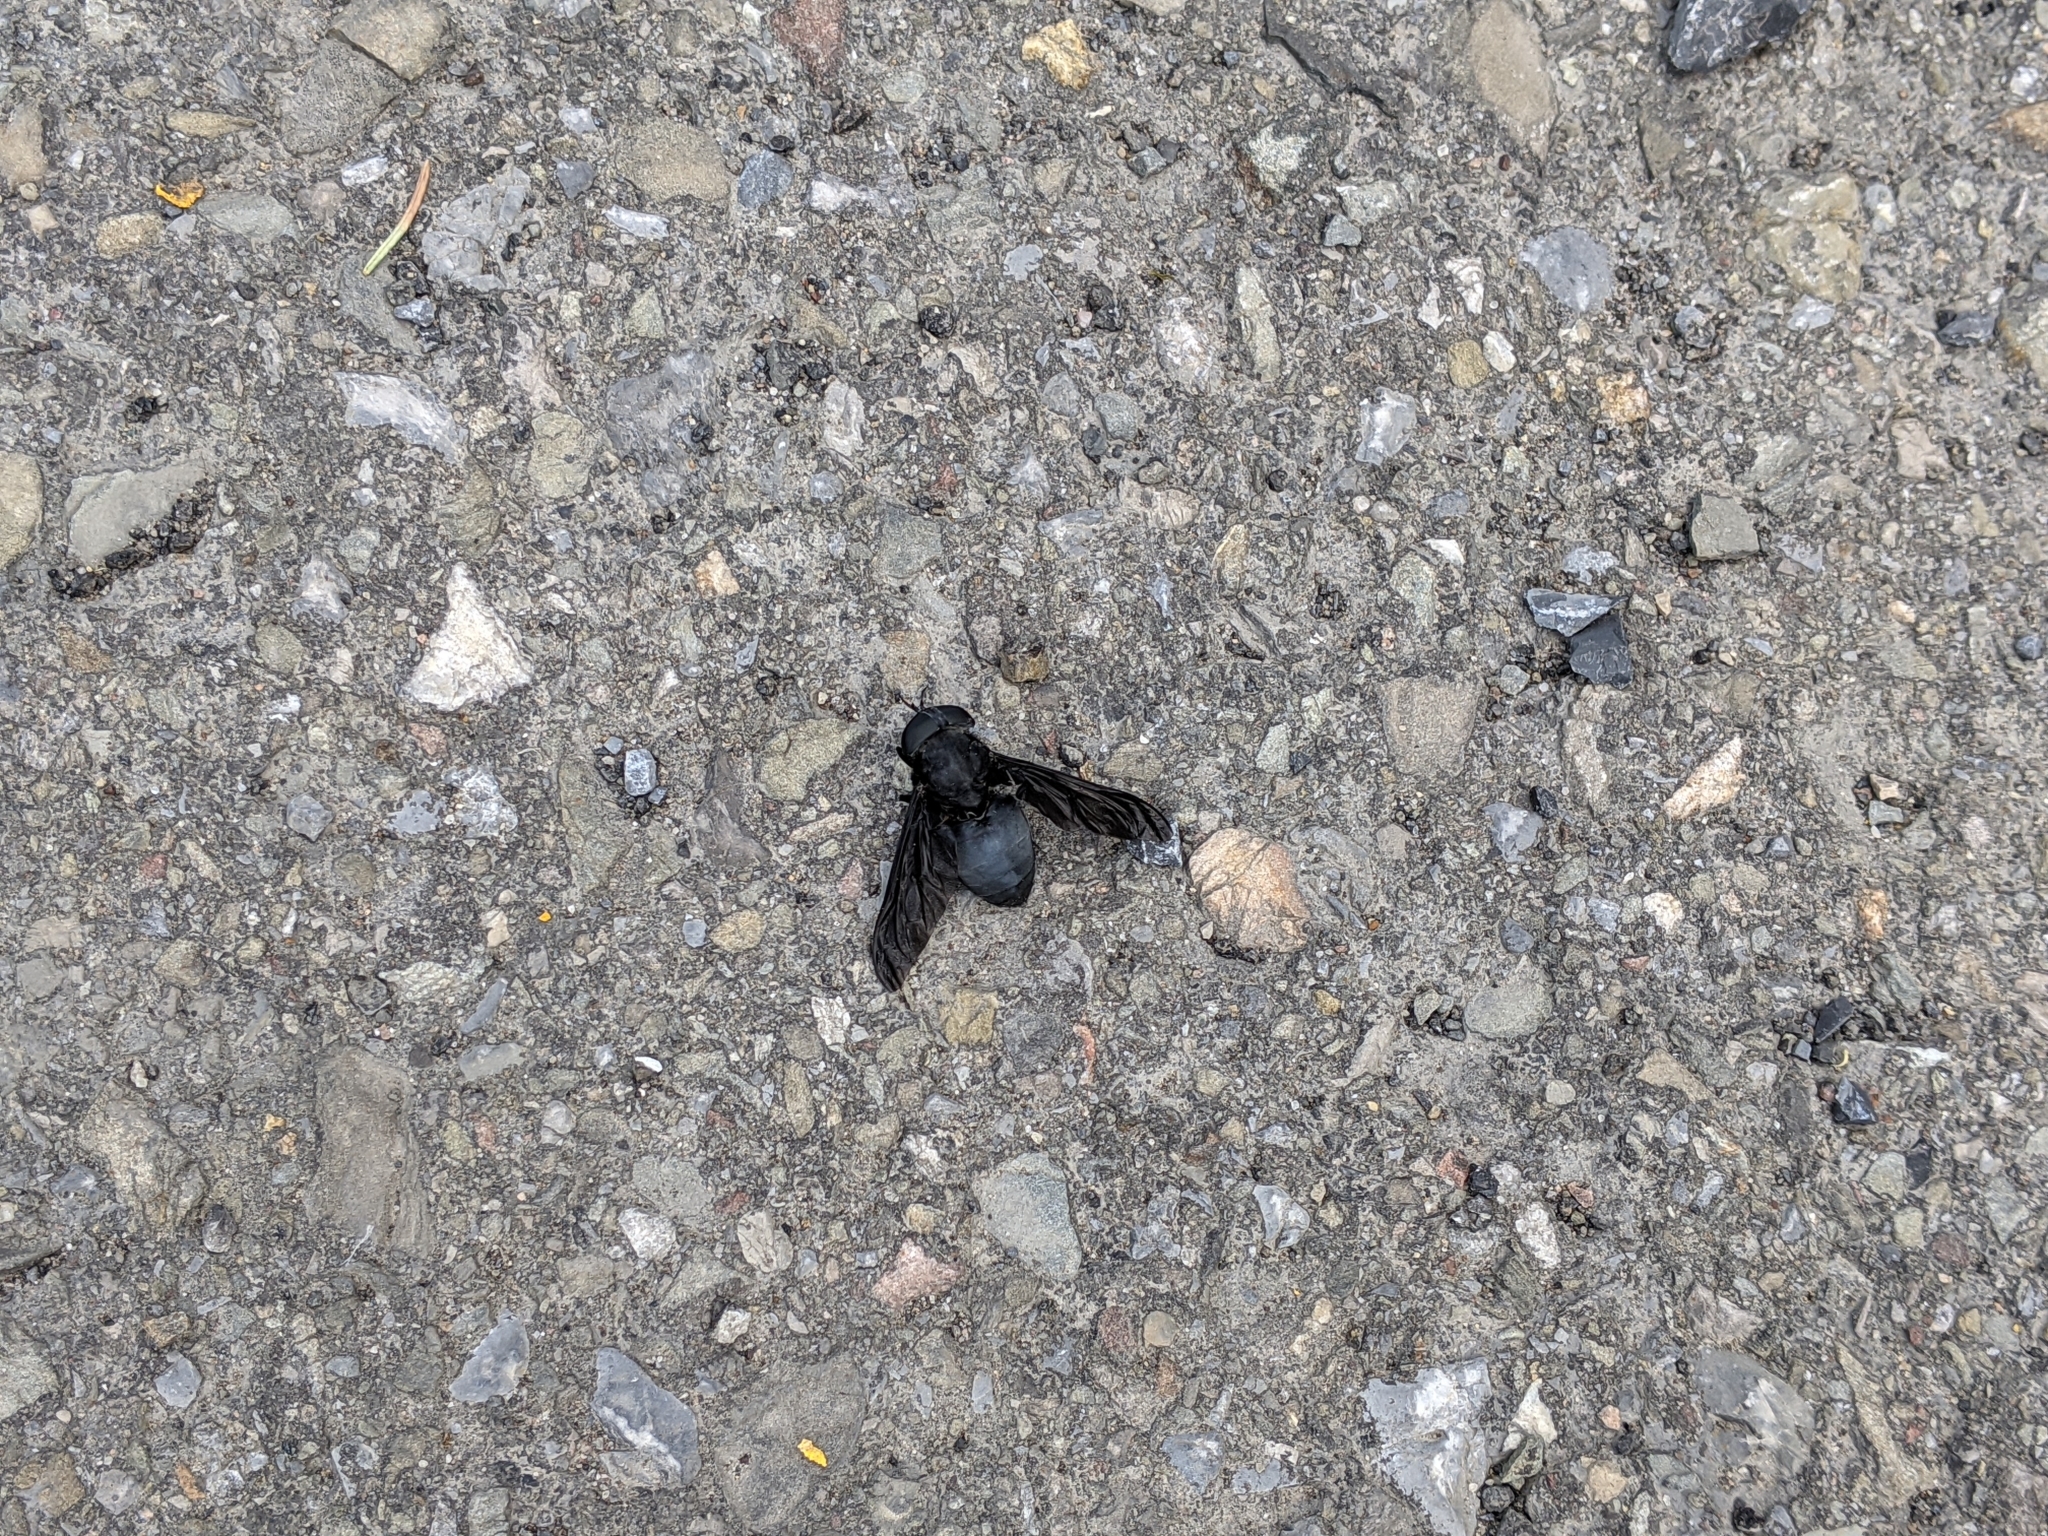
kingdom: Animalia
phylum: Arthropoda
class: Insecta
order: Diptera
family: Tabanidae
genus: Tabanus
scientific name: Tabanus atratus
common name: Black horse fly
